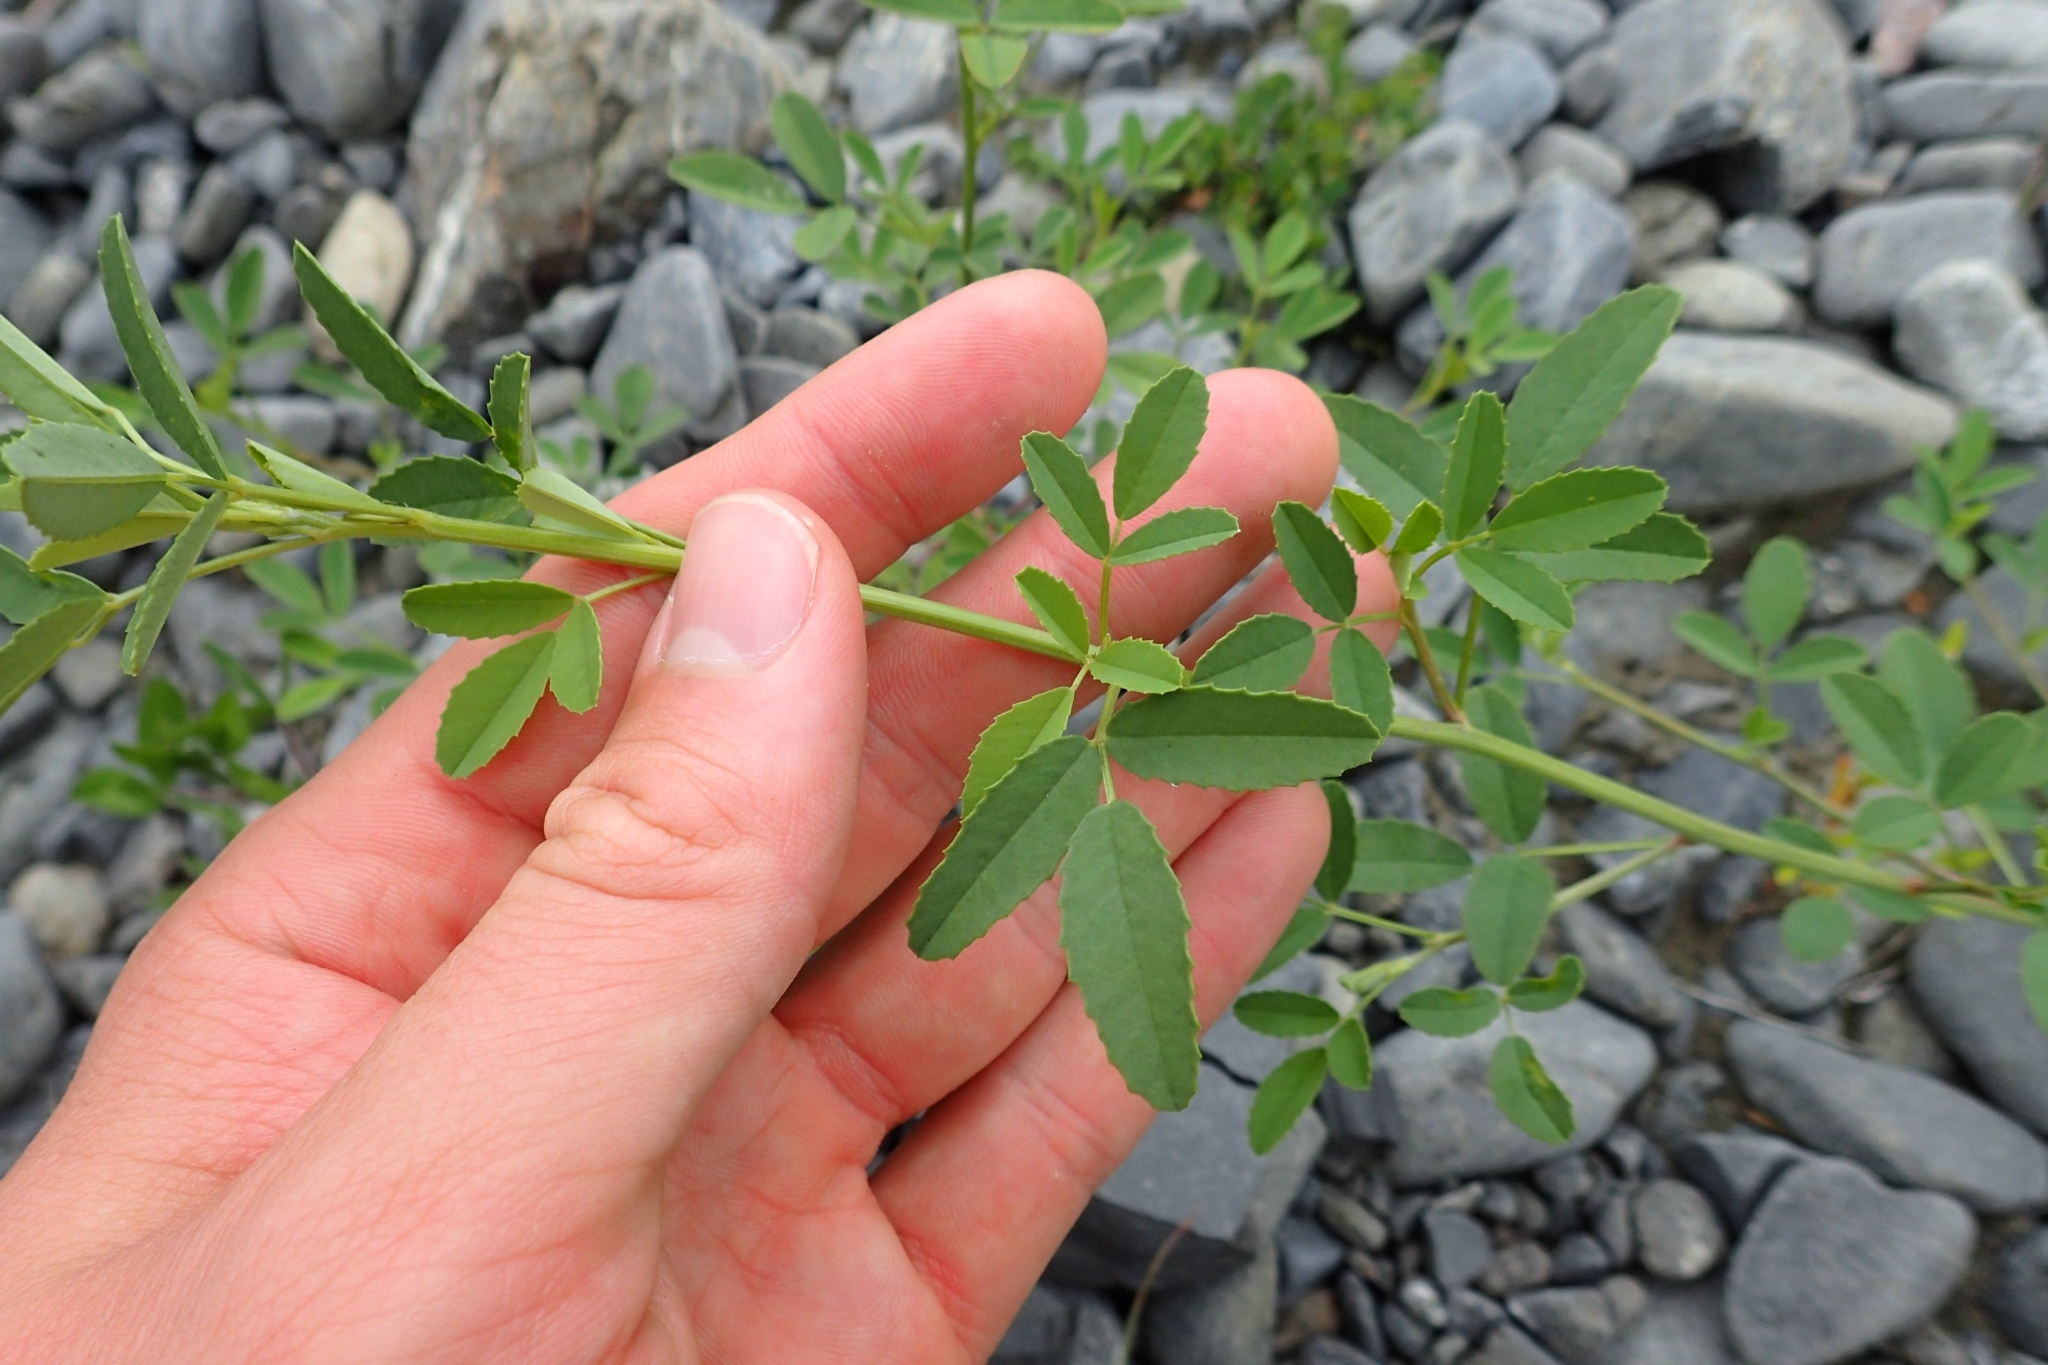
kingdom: Plantae
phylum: Tracheophyta
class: Magnoliopsida
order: Fabales
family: Fabaceae
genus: Melilotus
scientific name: Melilotus albus
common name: White melilot
